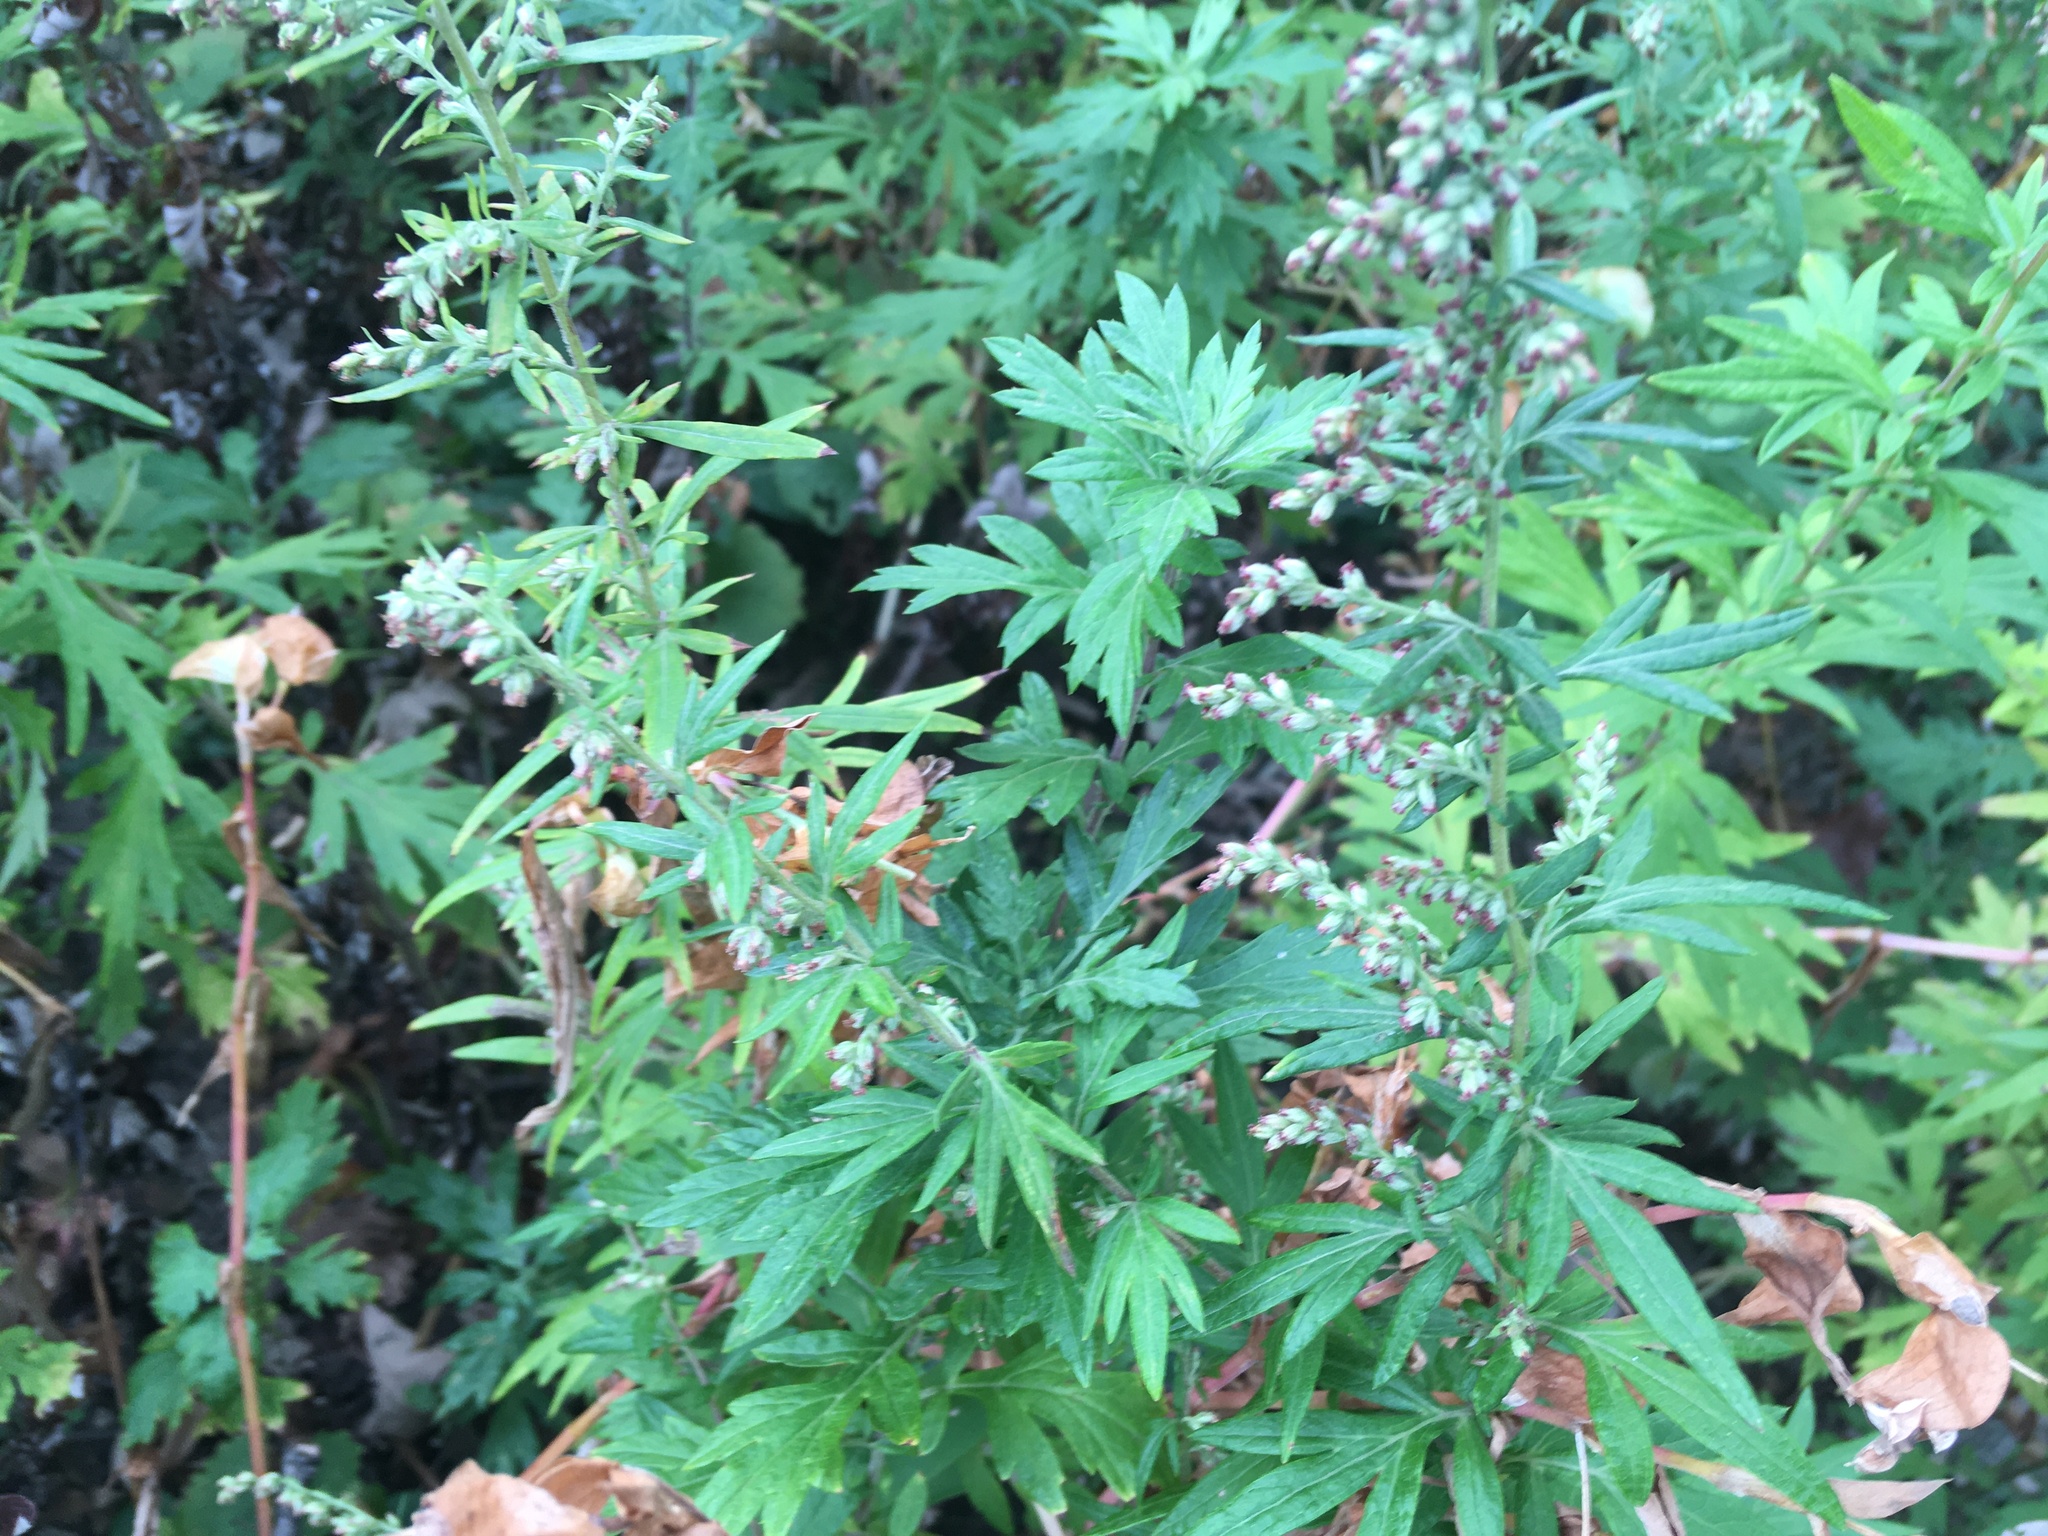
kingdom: Plantae
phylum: Tracheophyta
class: Magnoliopsida
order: Asterales
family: Asteraceae
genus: Artemisia
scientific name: Artemisia vulgaris
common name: Mugwort
